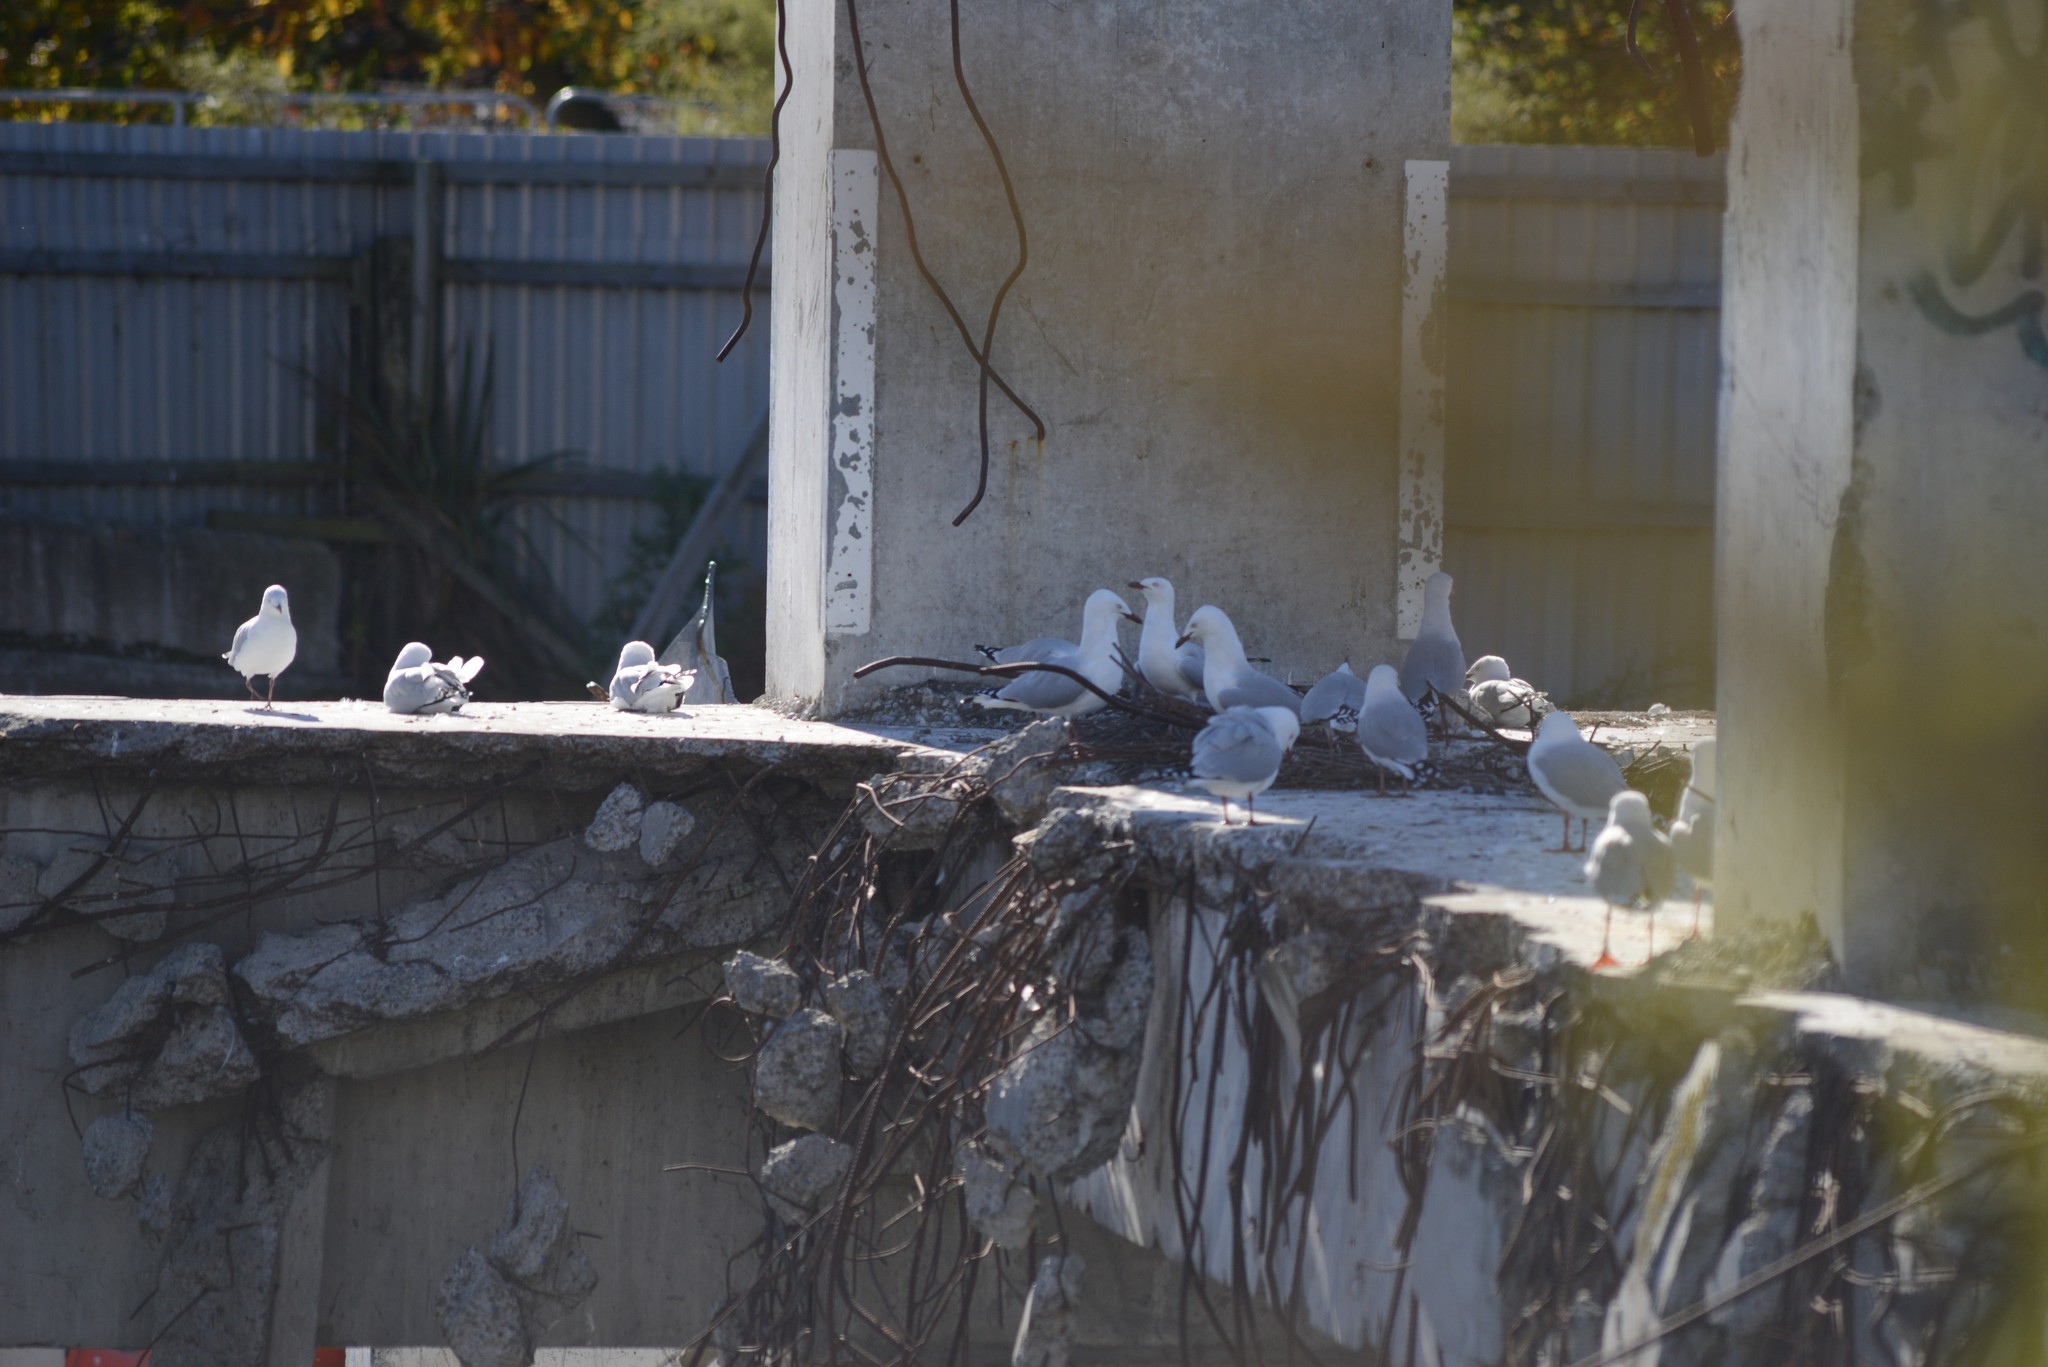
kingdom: Animalia
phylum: Chordata
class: Aves
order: Charadriiformes
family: Laridae
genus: Chroicocephalus
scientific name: Chroicocephalus novaehollandiae
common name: Silver gull
